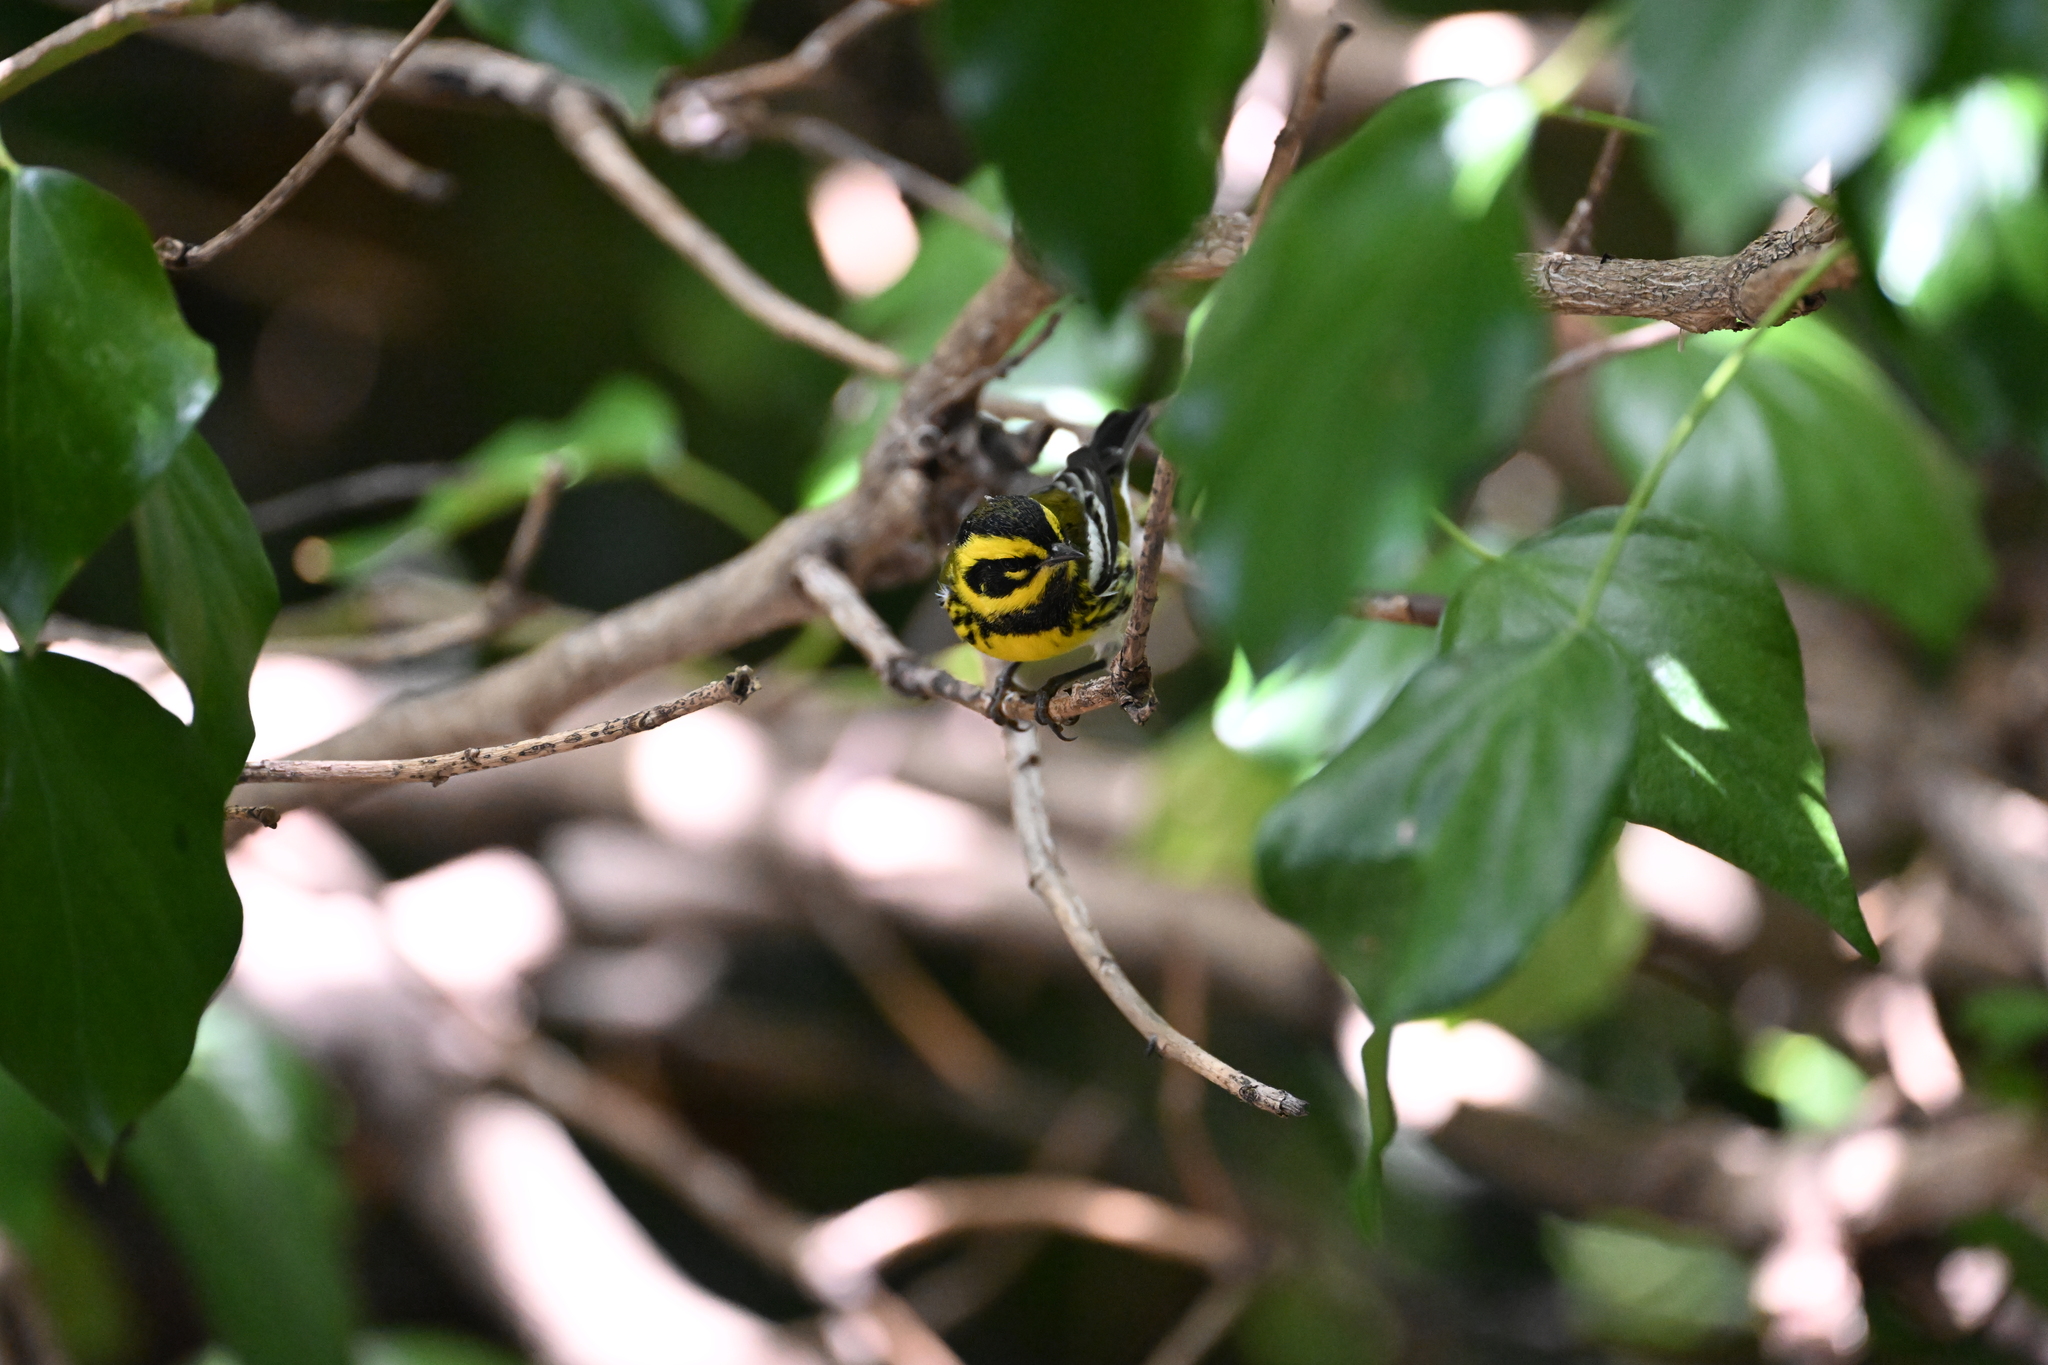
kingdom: Animalia
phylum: Chordata
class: Aves
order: Passeriformes
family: Parulidae
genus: Setophaga
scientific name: Setophaga townsendi
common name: Townsend's warbler
